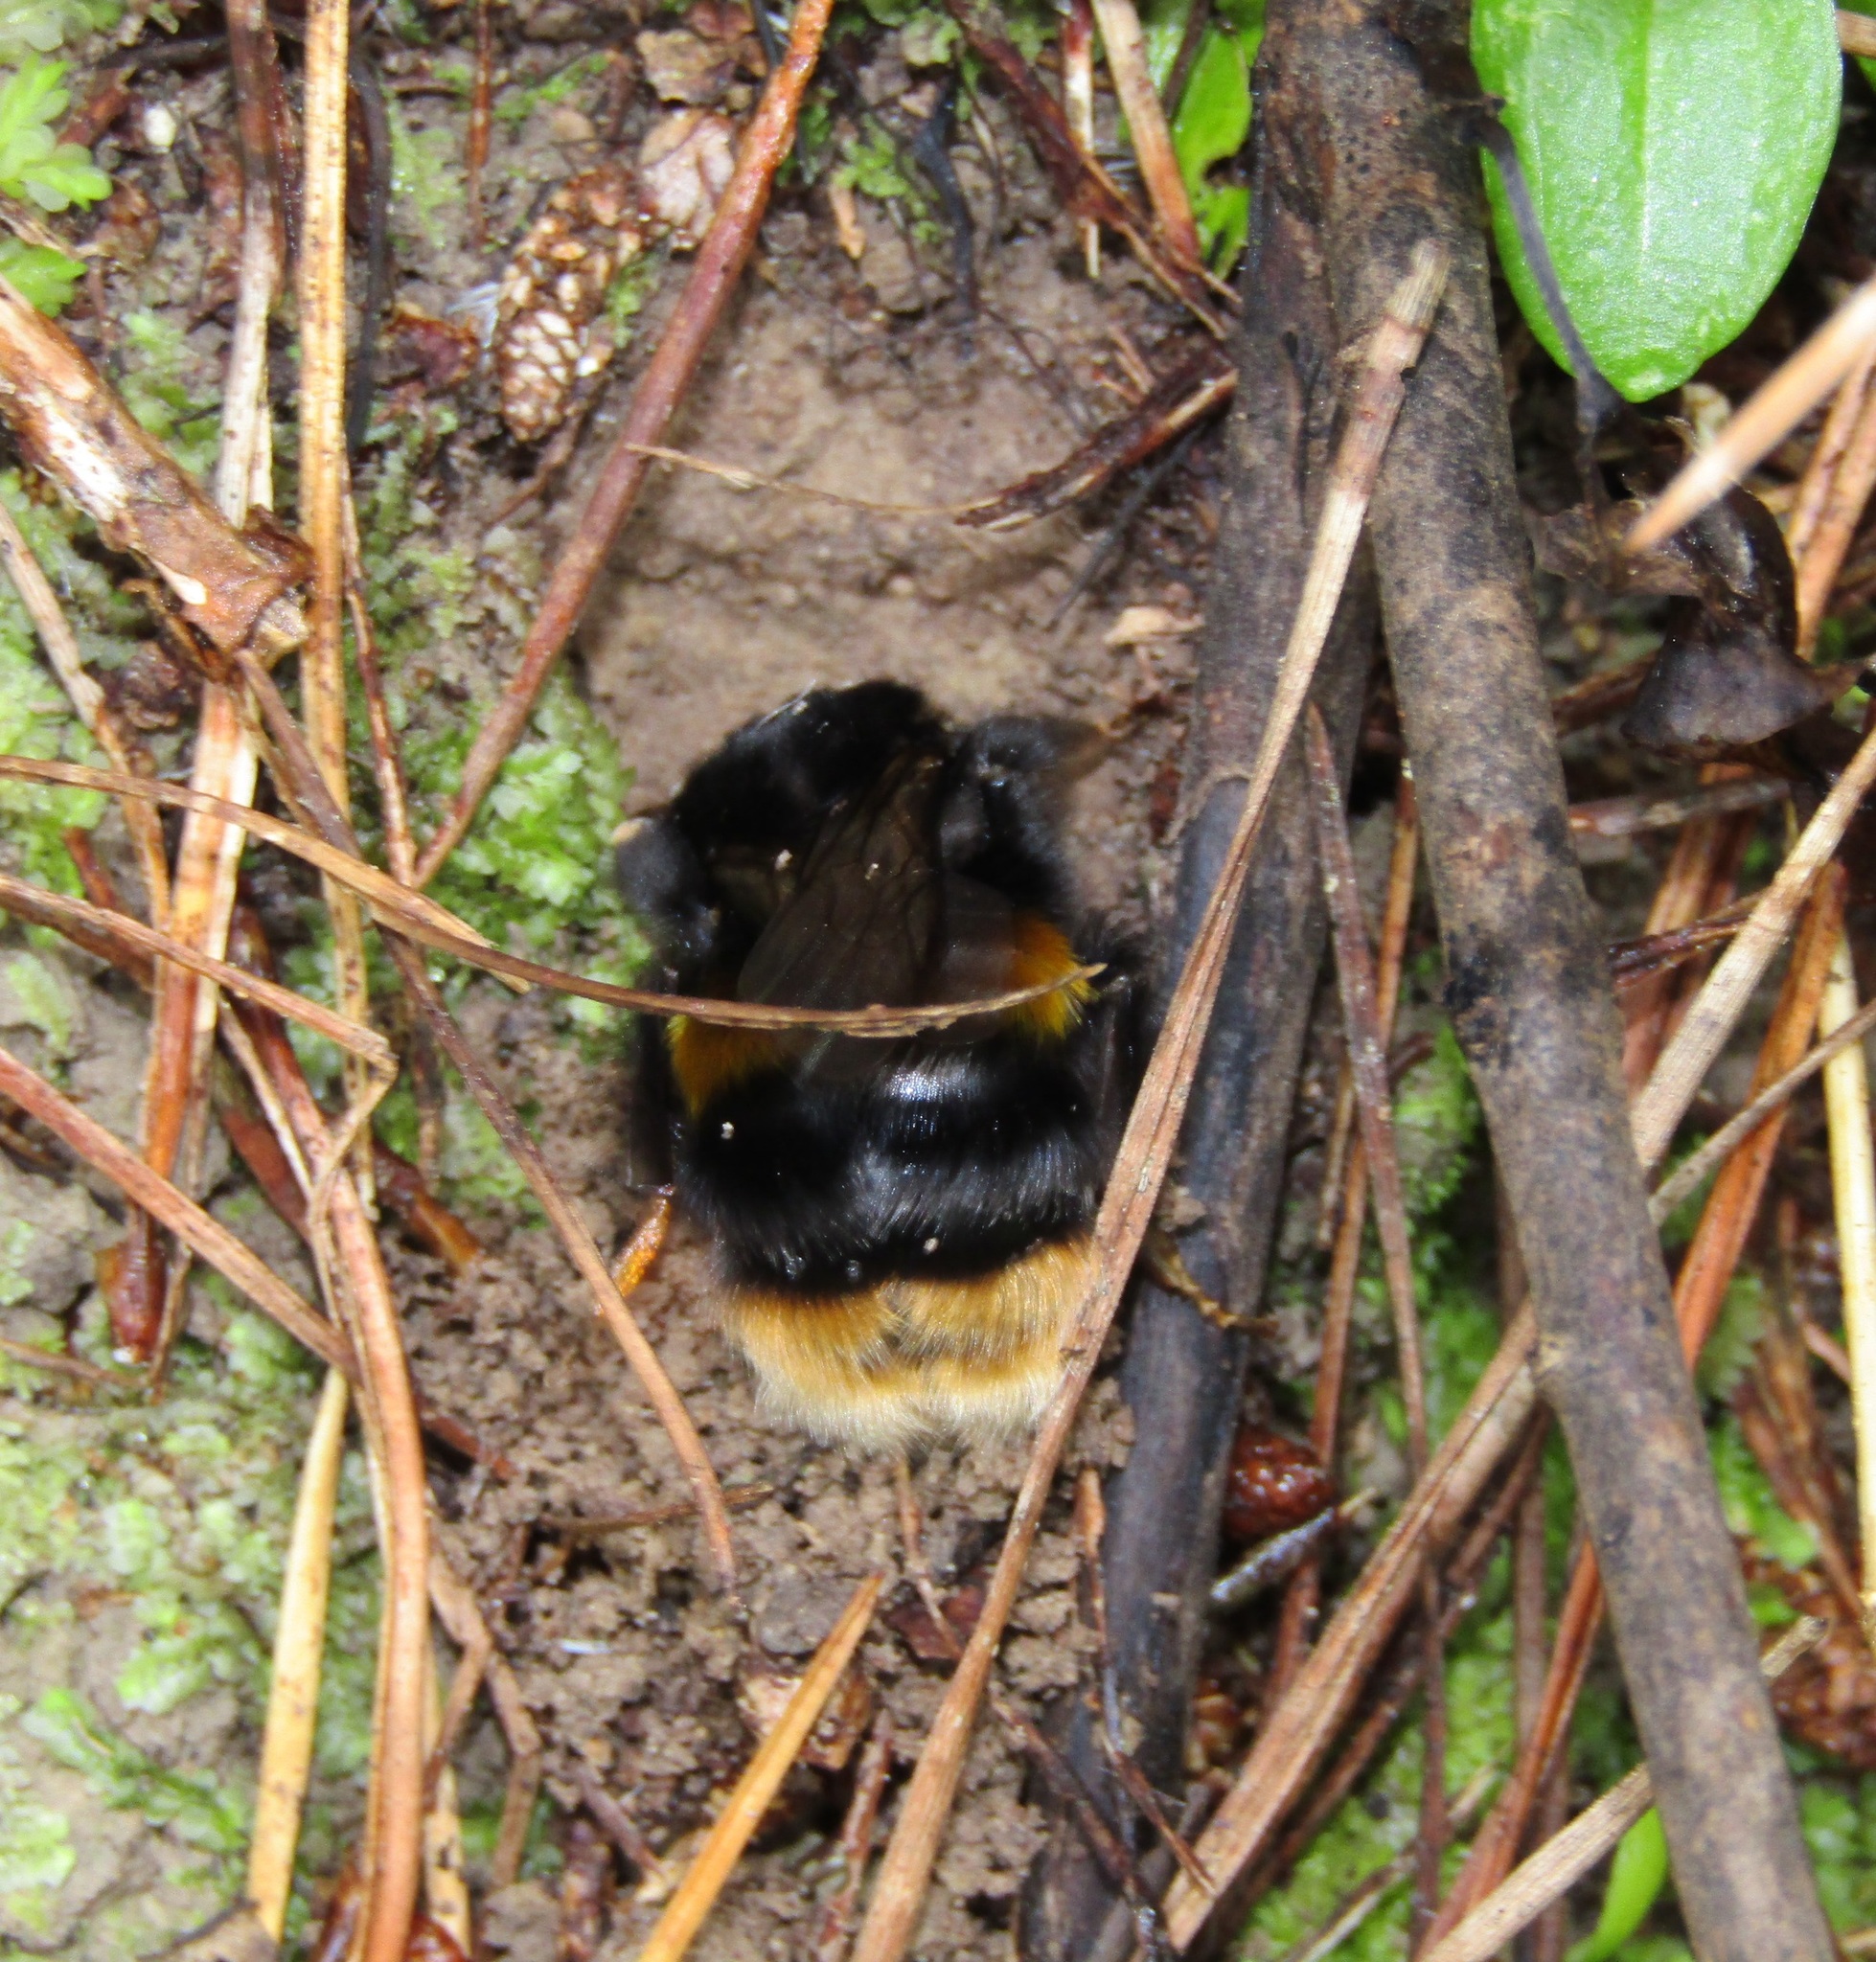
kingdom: Animalia
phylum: Arthropoda
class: Insecta
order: Hymenoptera
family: Apidae
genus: Bombus
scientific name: Bombus terrestris
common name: Buff-tailed bumblebee
